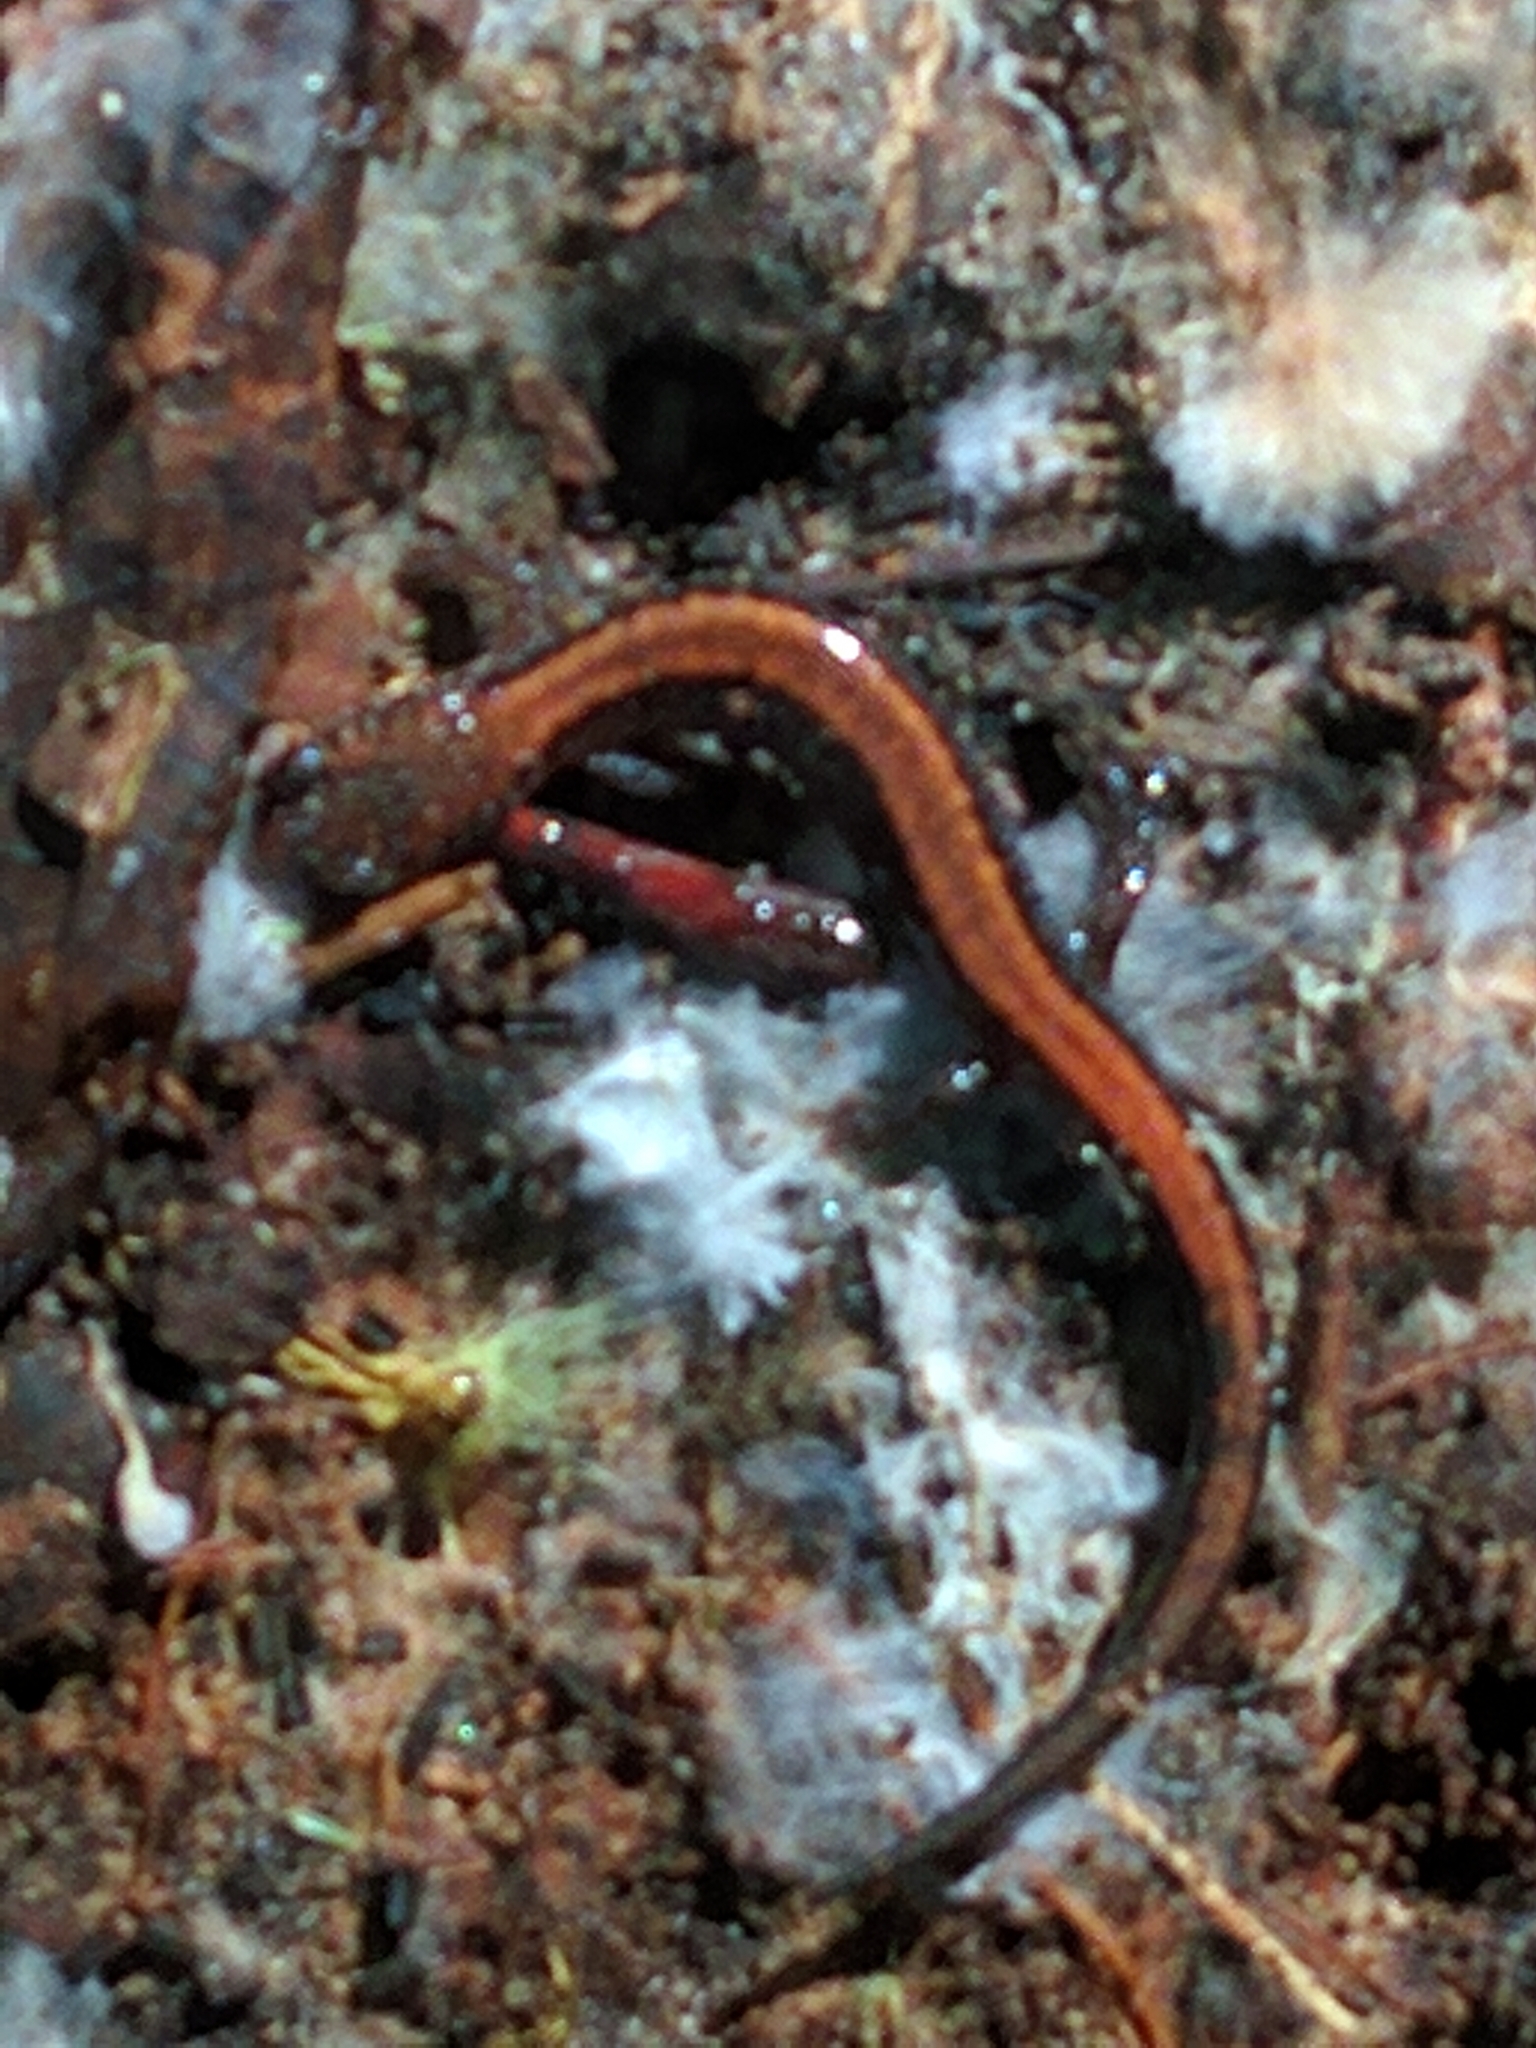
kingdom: Animalia
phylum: Chordata
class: Amphibia
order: Caudata
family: Plethodontidae
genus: Plethodon
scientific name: Plethodon cinereus
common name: Redback salamander
